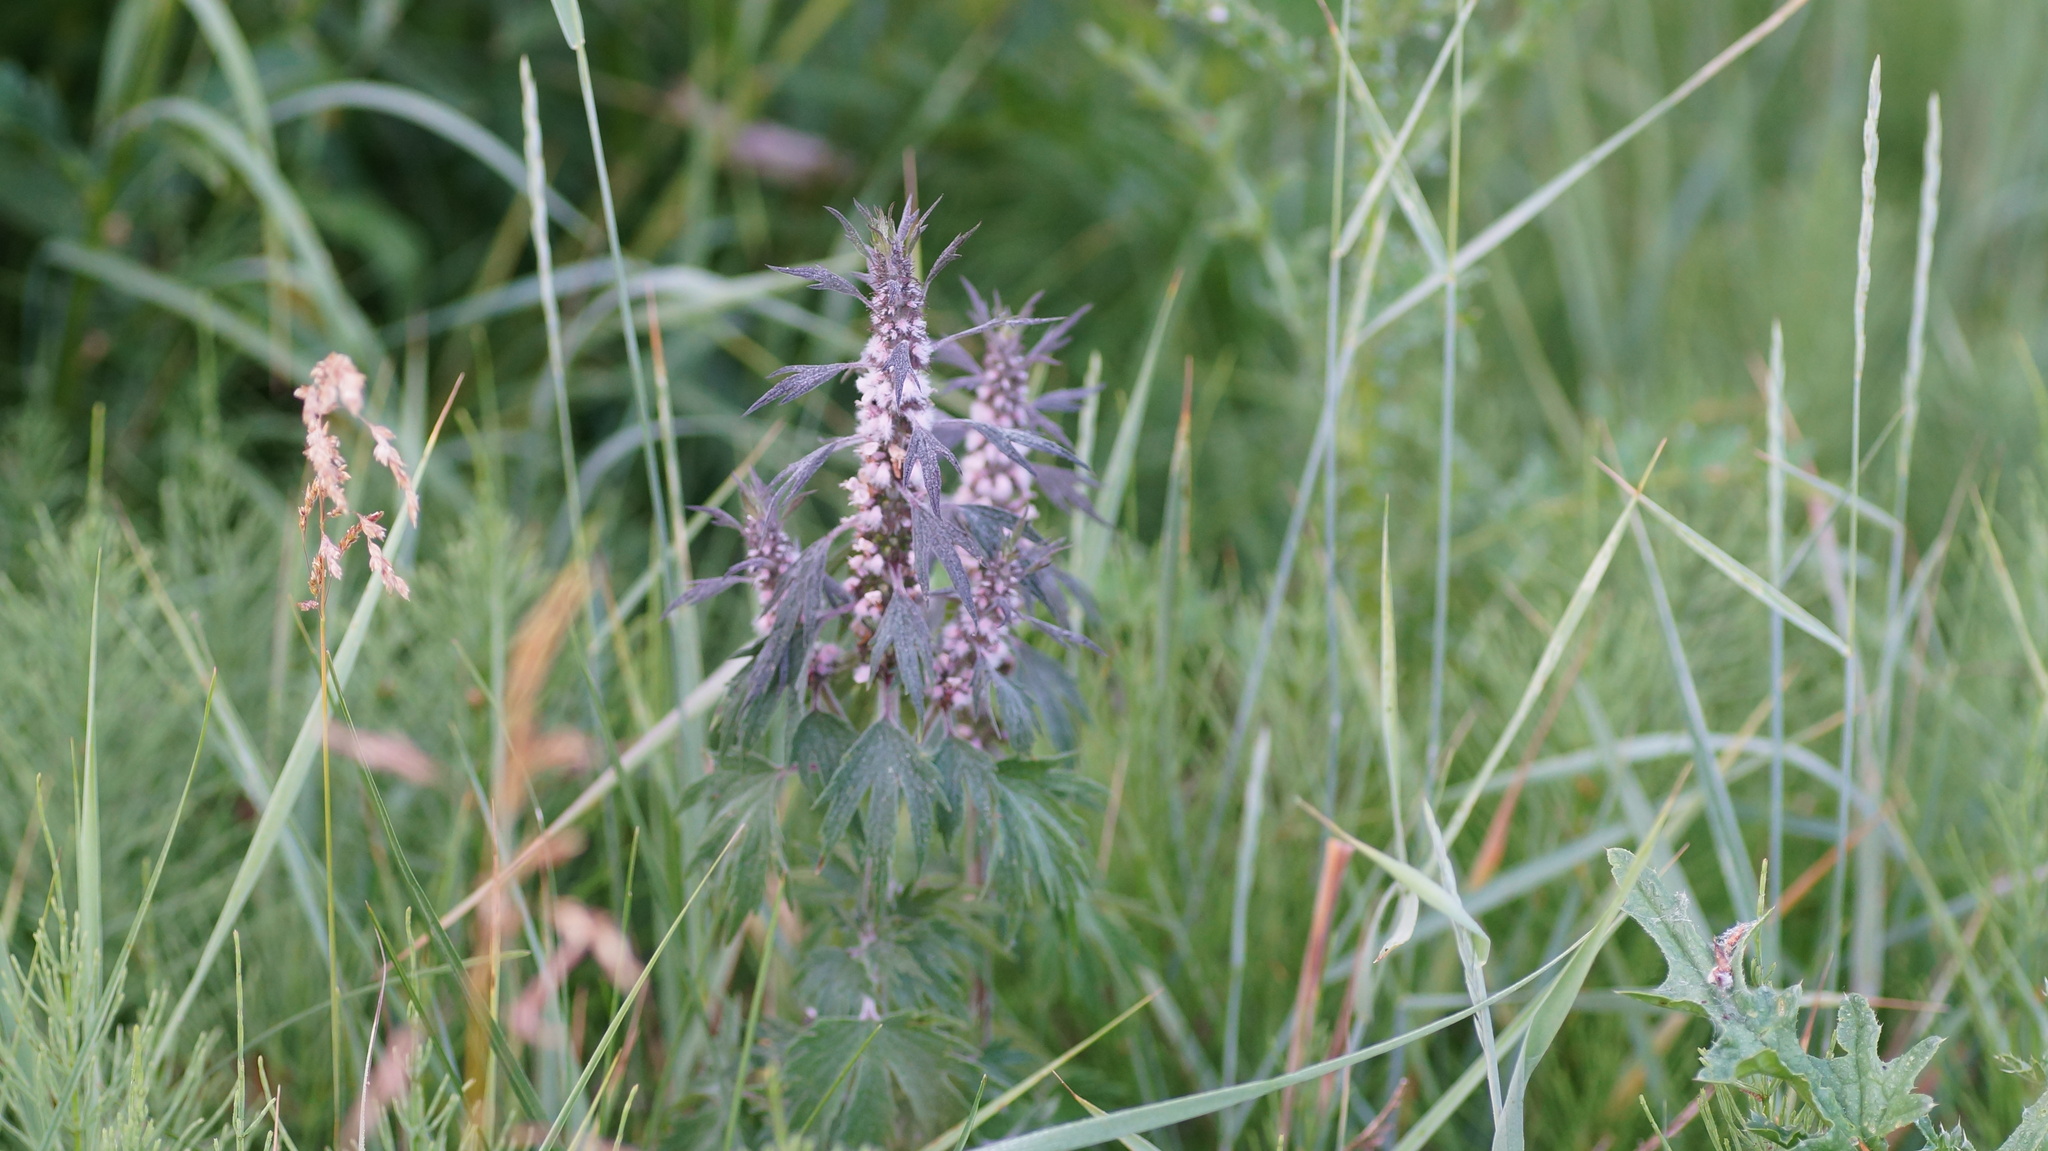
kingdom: Plantae
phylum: Tracheophyta
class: Magnoliopsida
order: Lamiales
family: Lamiaceae
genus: Leonurus
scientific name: Leonurus quinquelobatus
